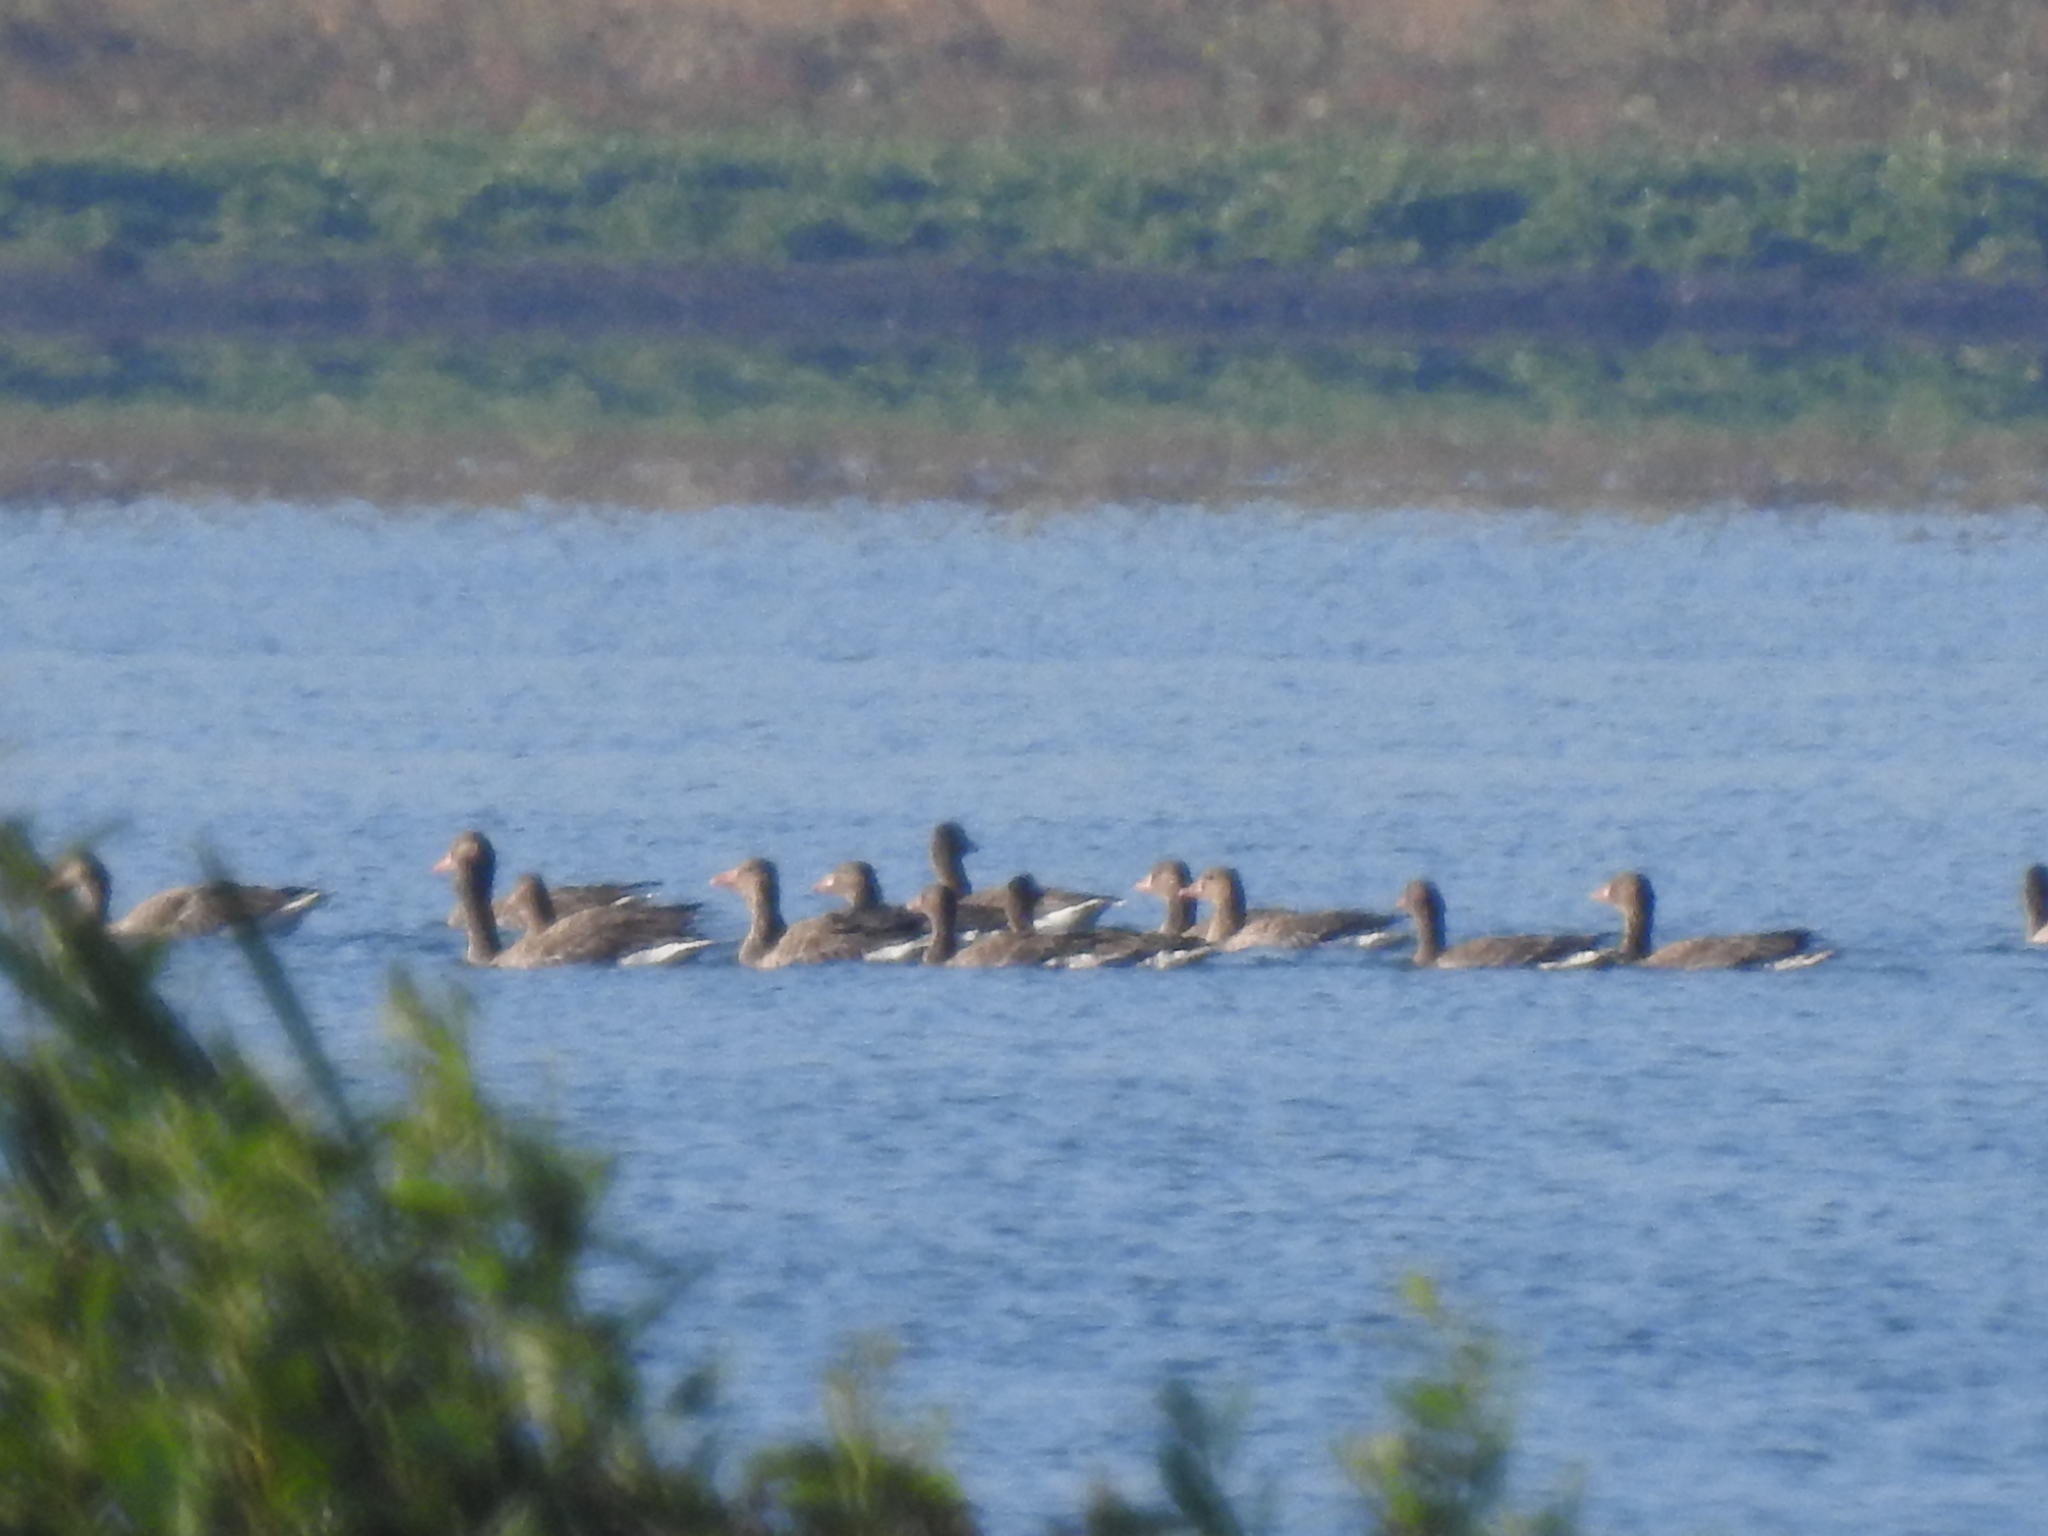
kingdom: Animalia
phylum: Chordata
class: Aves
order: Anseriformes
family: Anatidae
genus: Anser
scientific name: Anser anser
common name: Greylag goose
